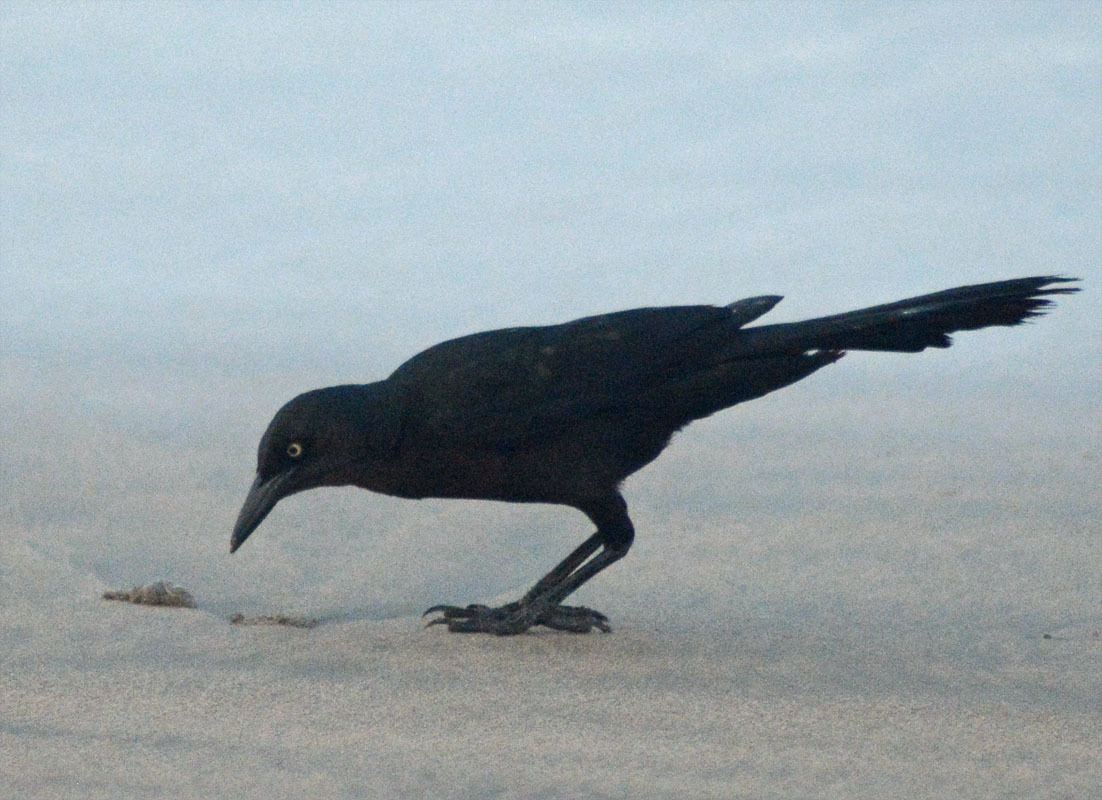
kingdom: Animalia
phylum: Chordata
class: Aves
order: Passeriformes
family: Icteridae
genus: Quiscalus
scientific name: Quiscalus mexicanus
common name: Great-tailed grackle
